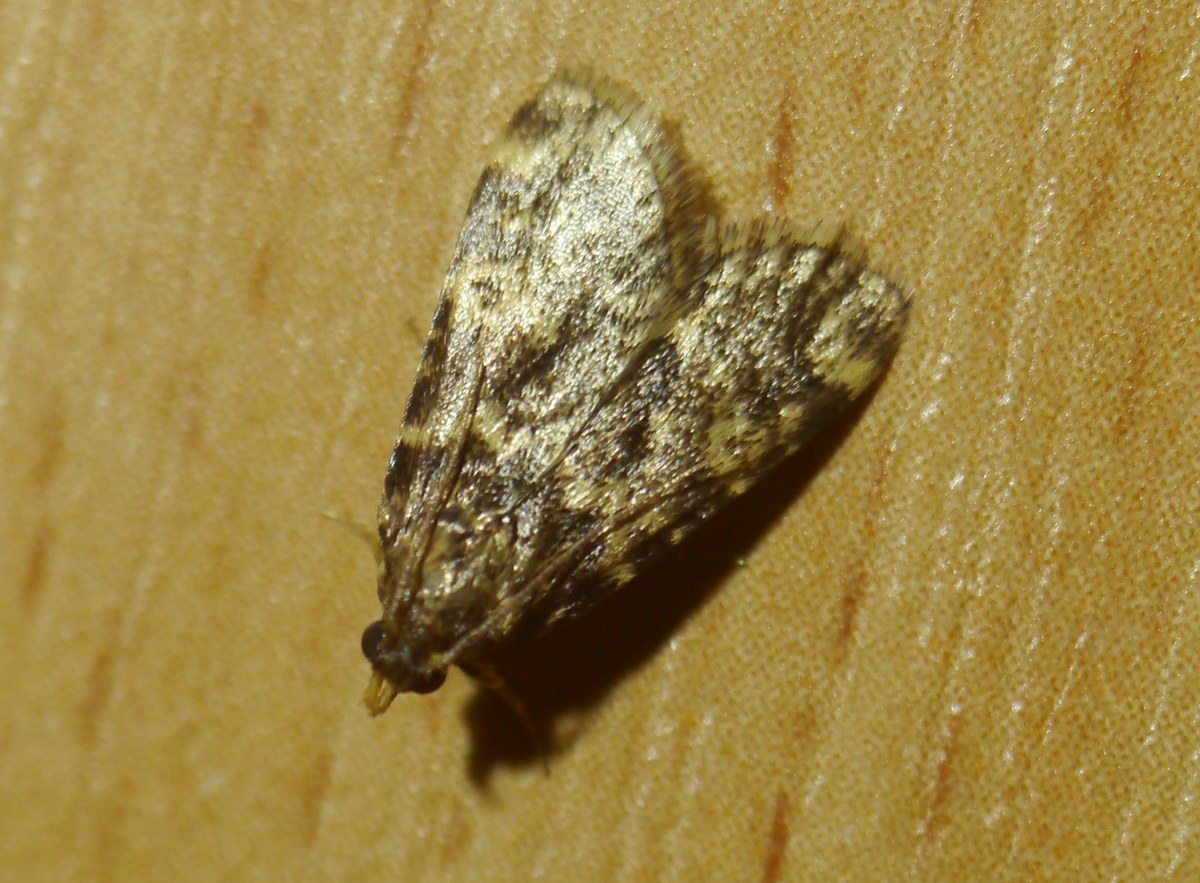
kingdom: Animalia
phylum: Arthropoda
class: Insecta
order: Lepidoptera
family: Pyralidae
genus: Aglossa
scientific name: Aglossa caprealis
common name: Small tabby
